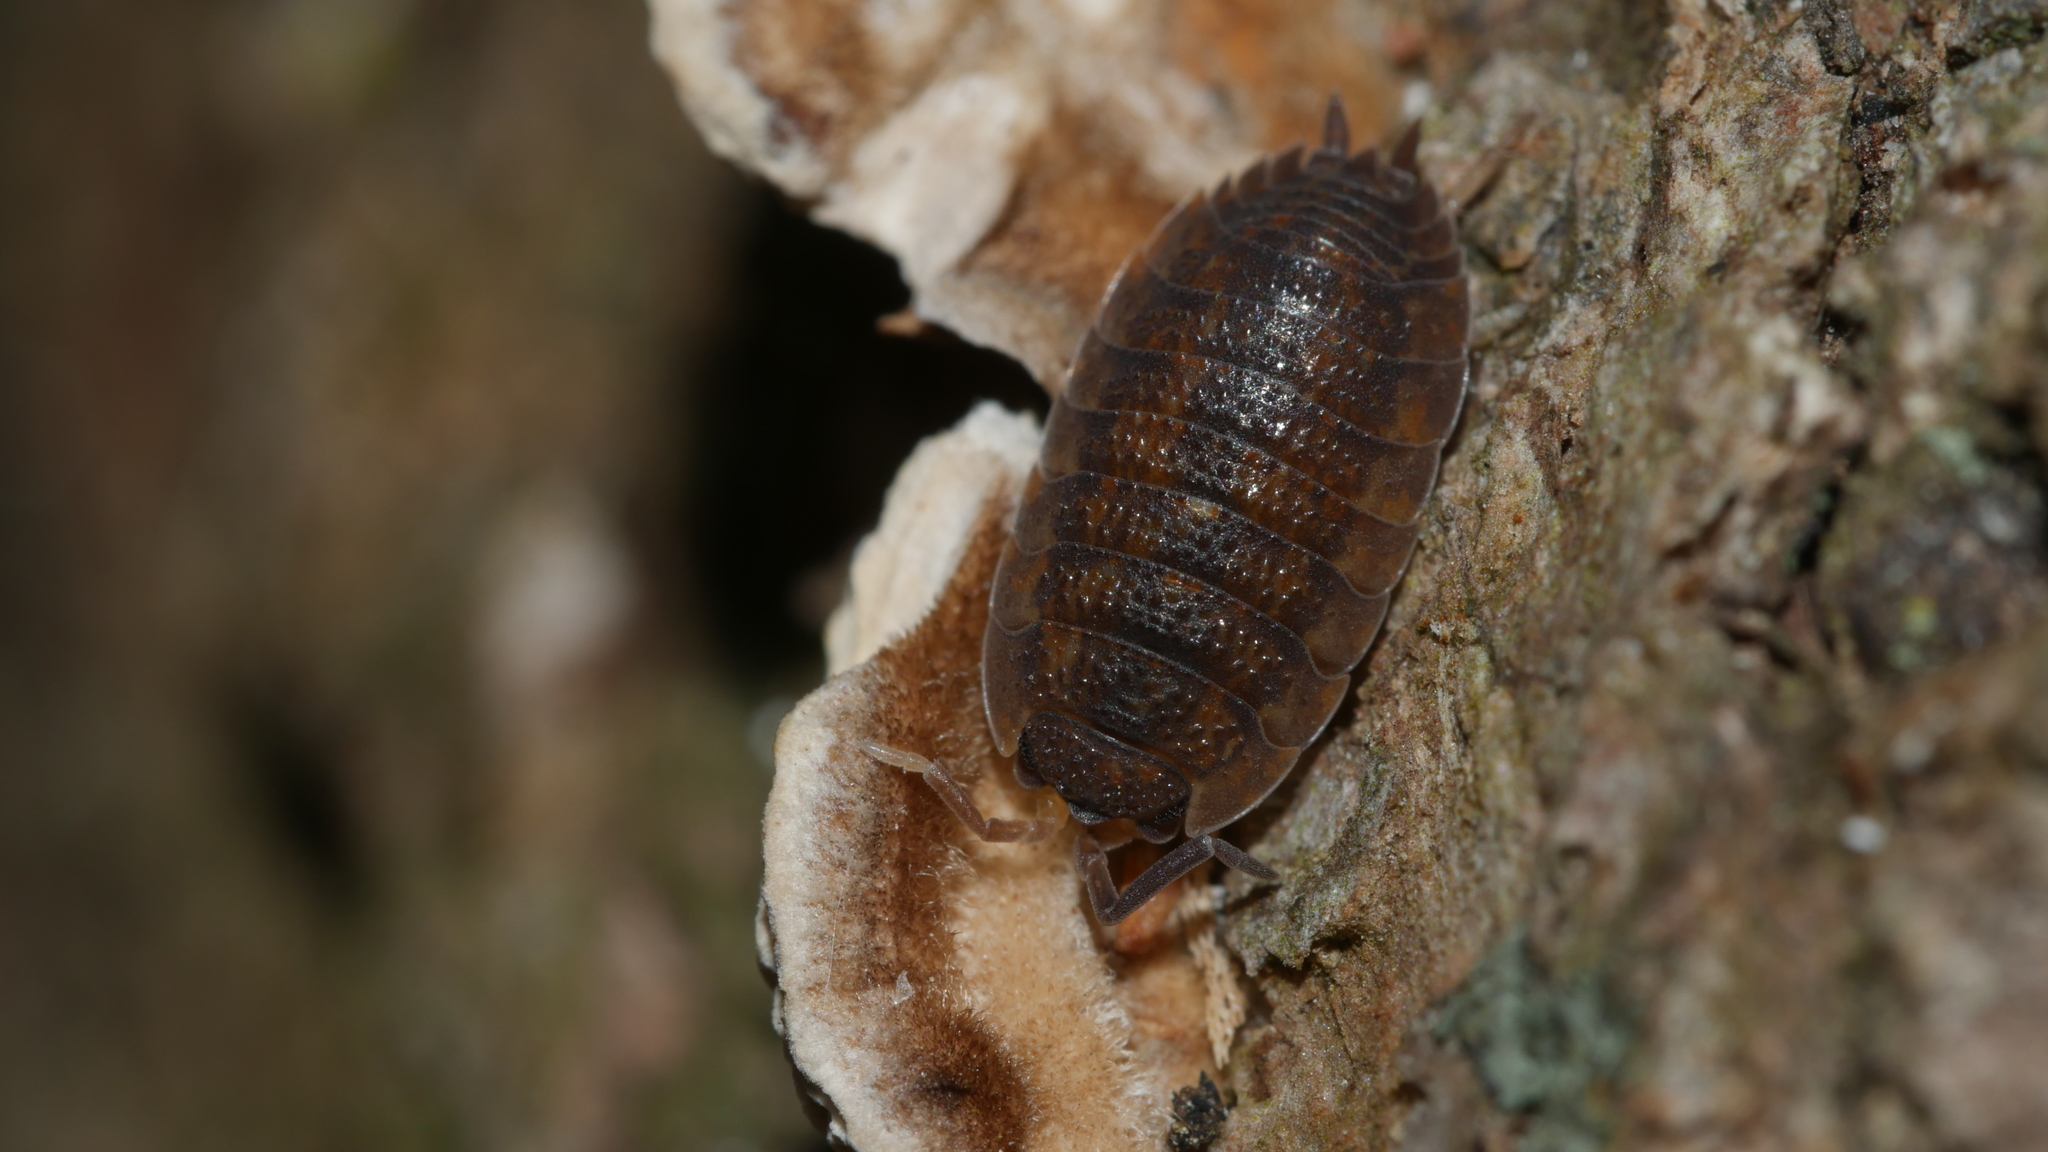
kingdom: Animalia
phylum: Arthropoda
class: Malacostraca
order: Isopoda
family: Porcellionidae
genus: Porcellio
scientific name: Porcellio scaber
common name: Common rough woodlouse
